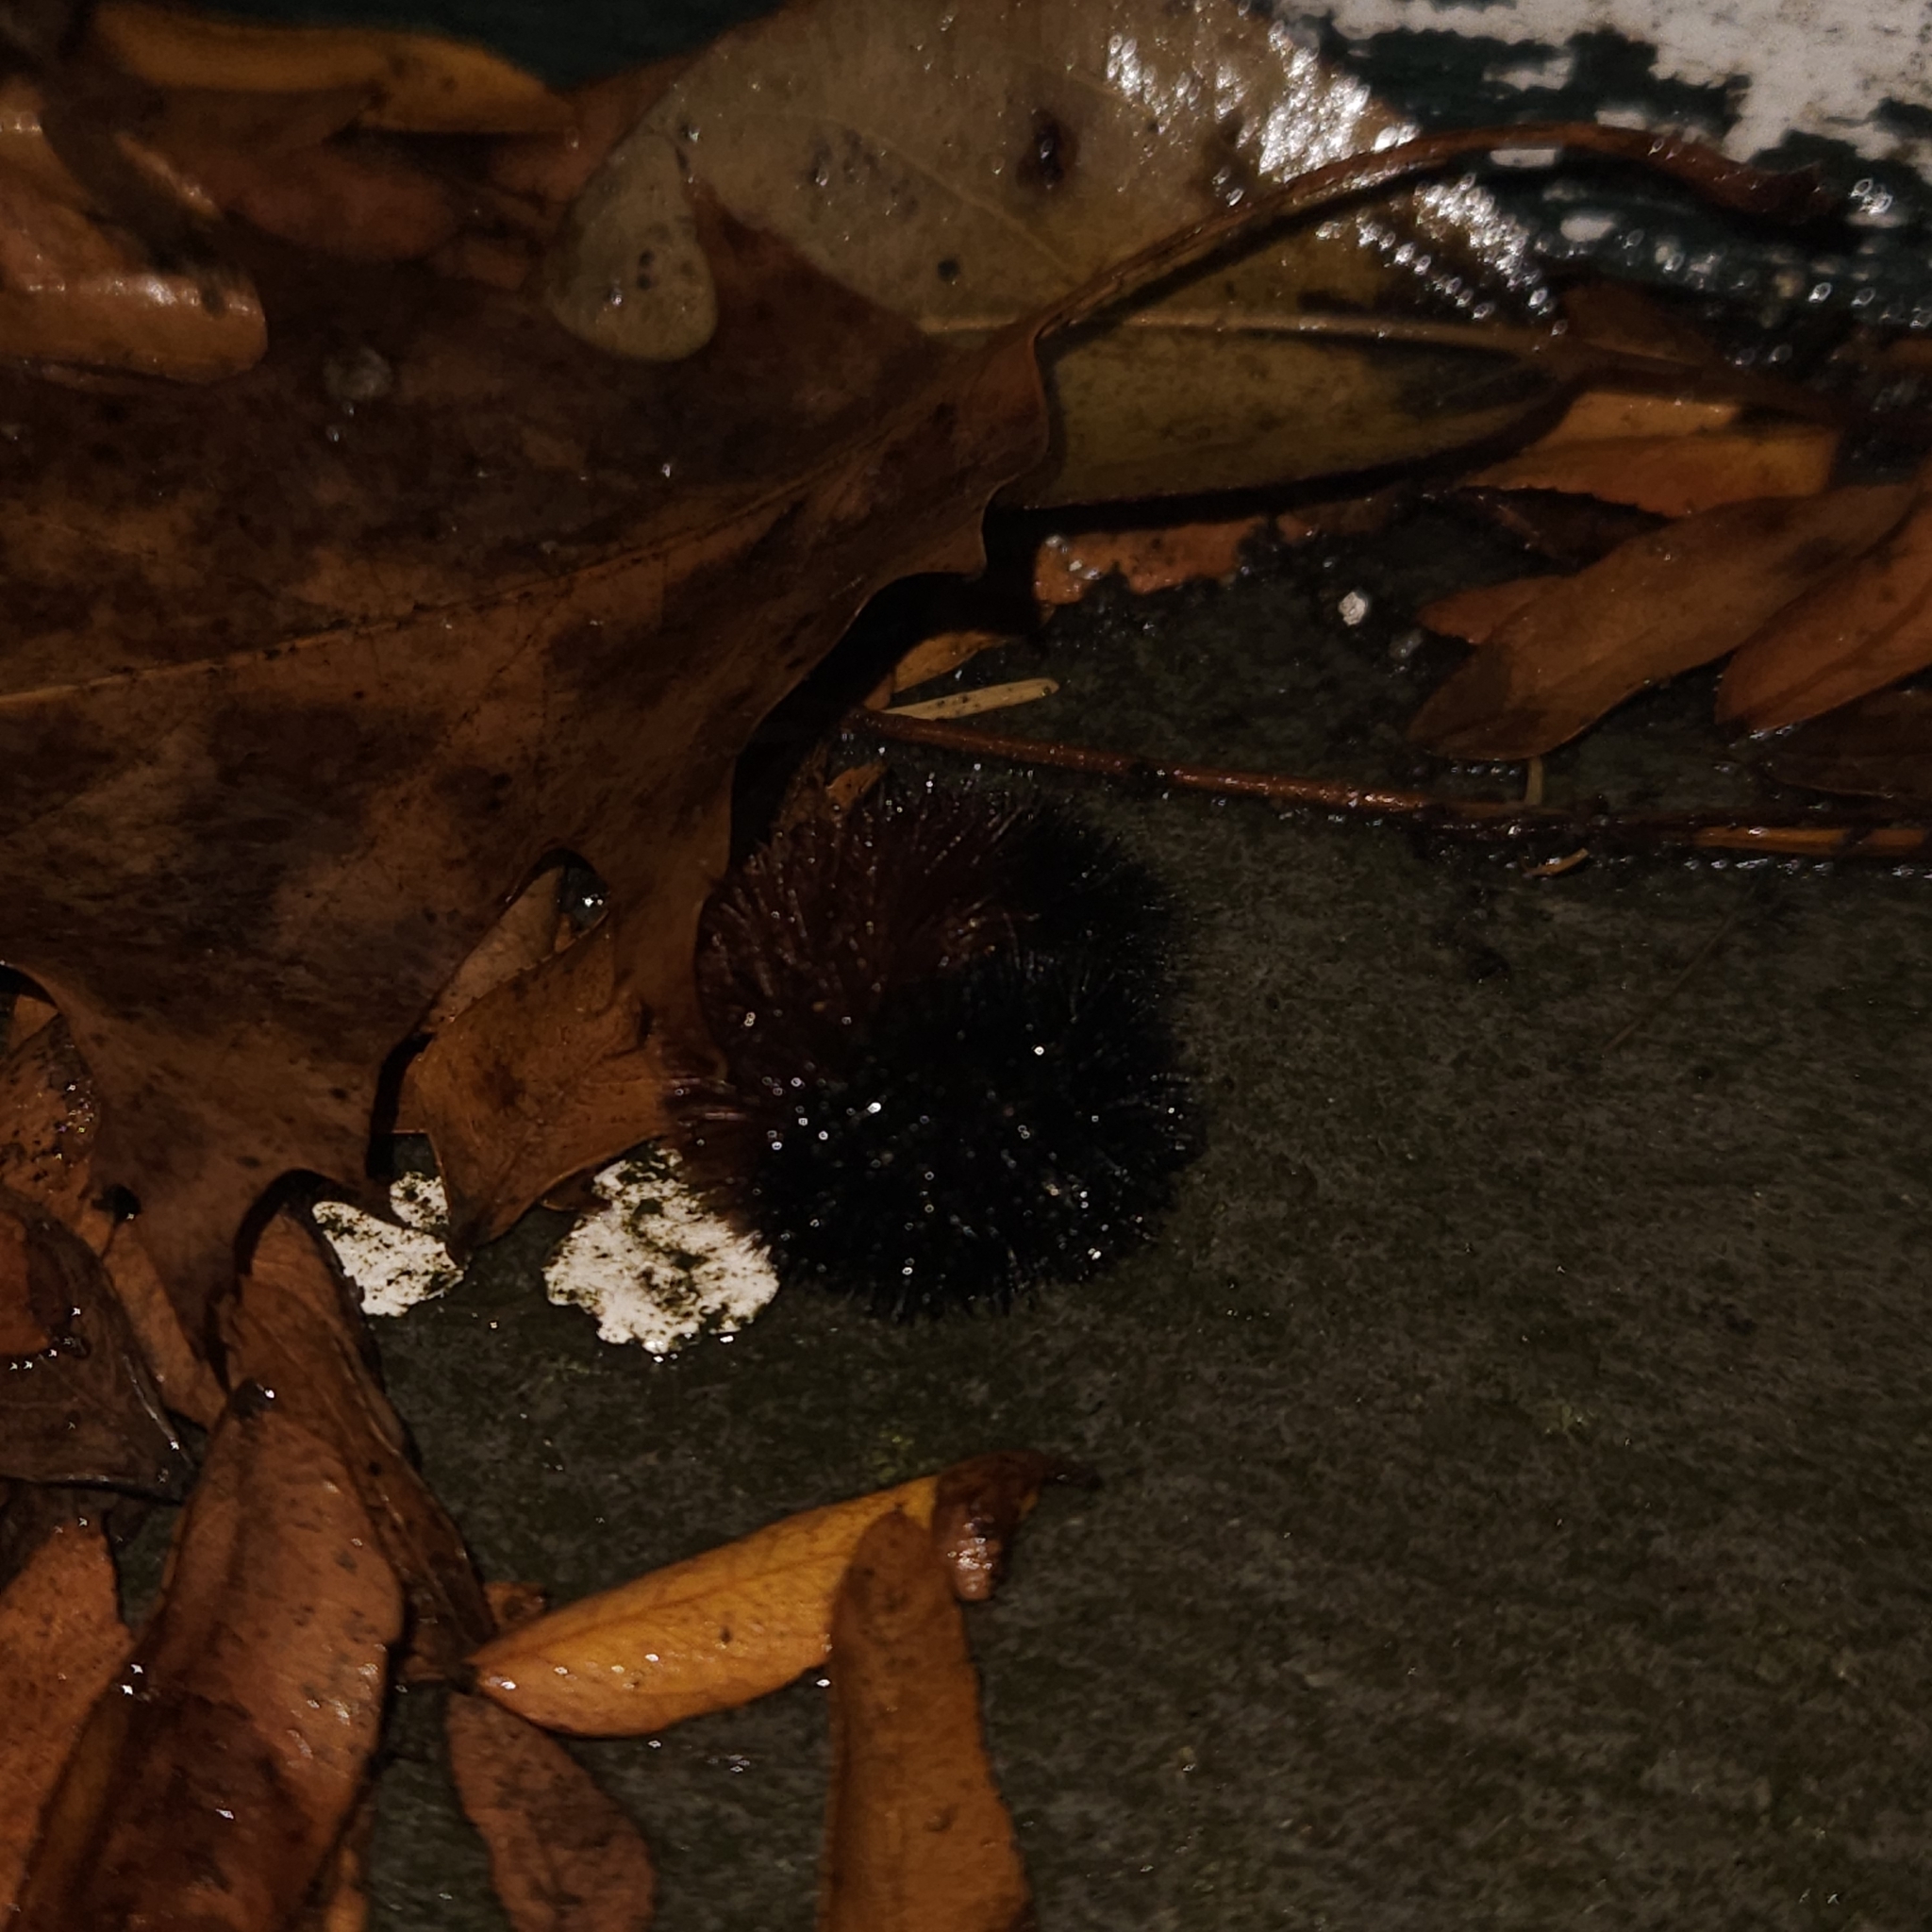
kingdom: Animalia
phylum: Arthropoda
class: Insecta
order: Lepidoptera
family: Erebidae
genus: Pyrrharctia
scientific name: Pyrrharctia isabella
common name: Isabella tiger moth
